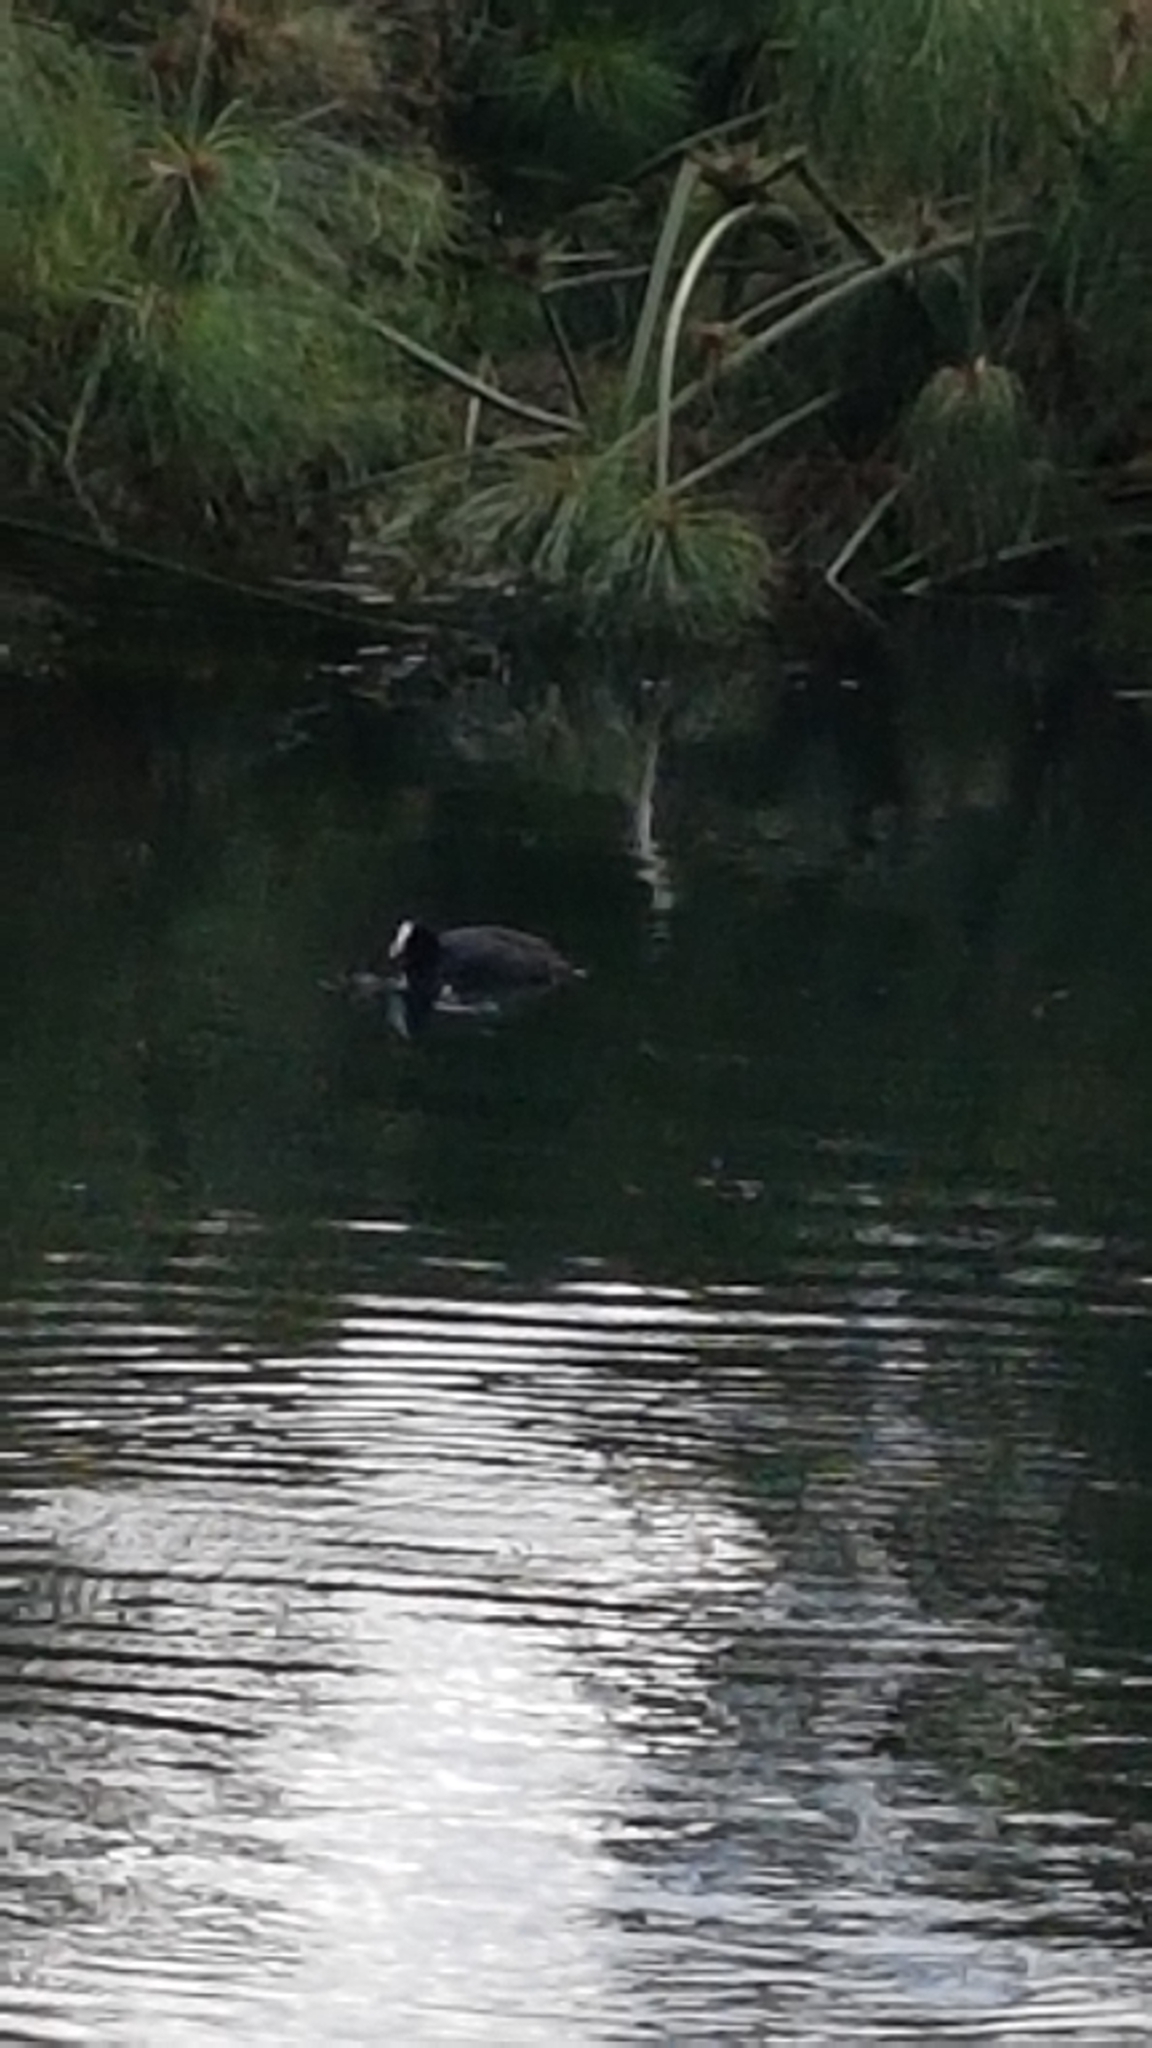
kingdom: Animalia
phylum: Chordata
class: Aves
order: Gruiformes
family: Rallidae
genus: Fulica
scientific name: Fulica atra
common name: Eurasian coot
